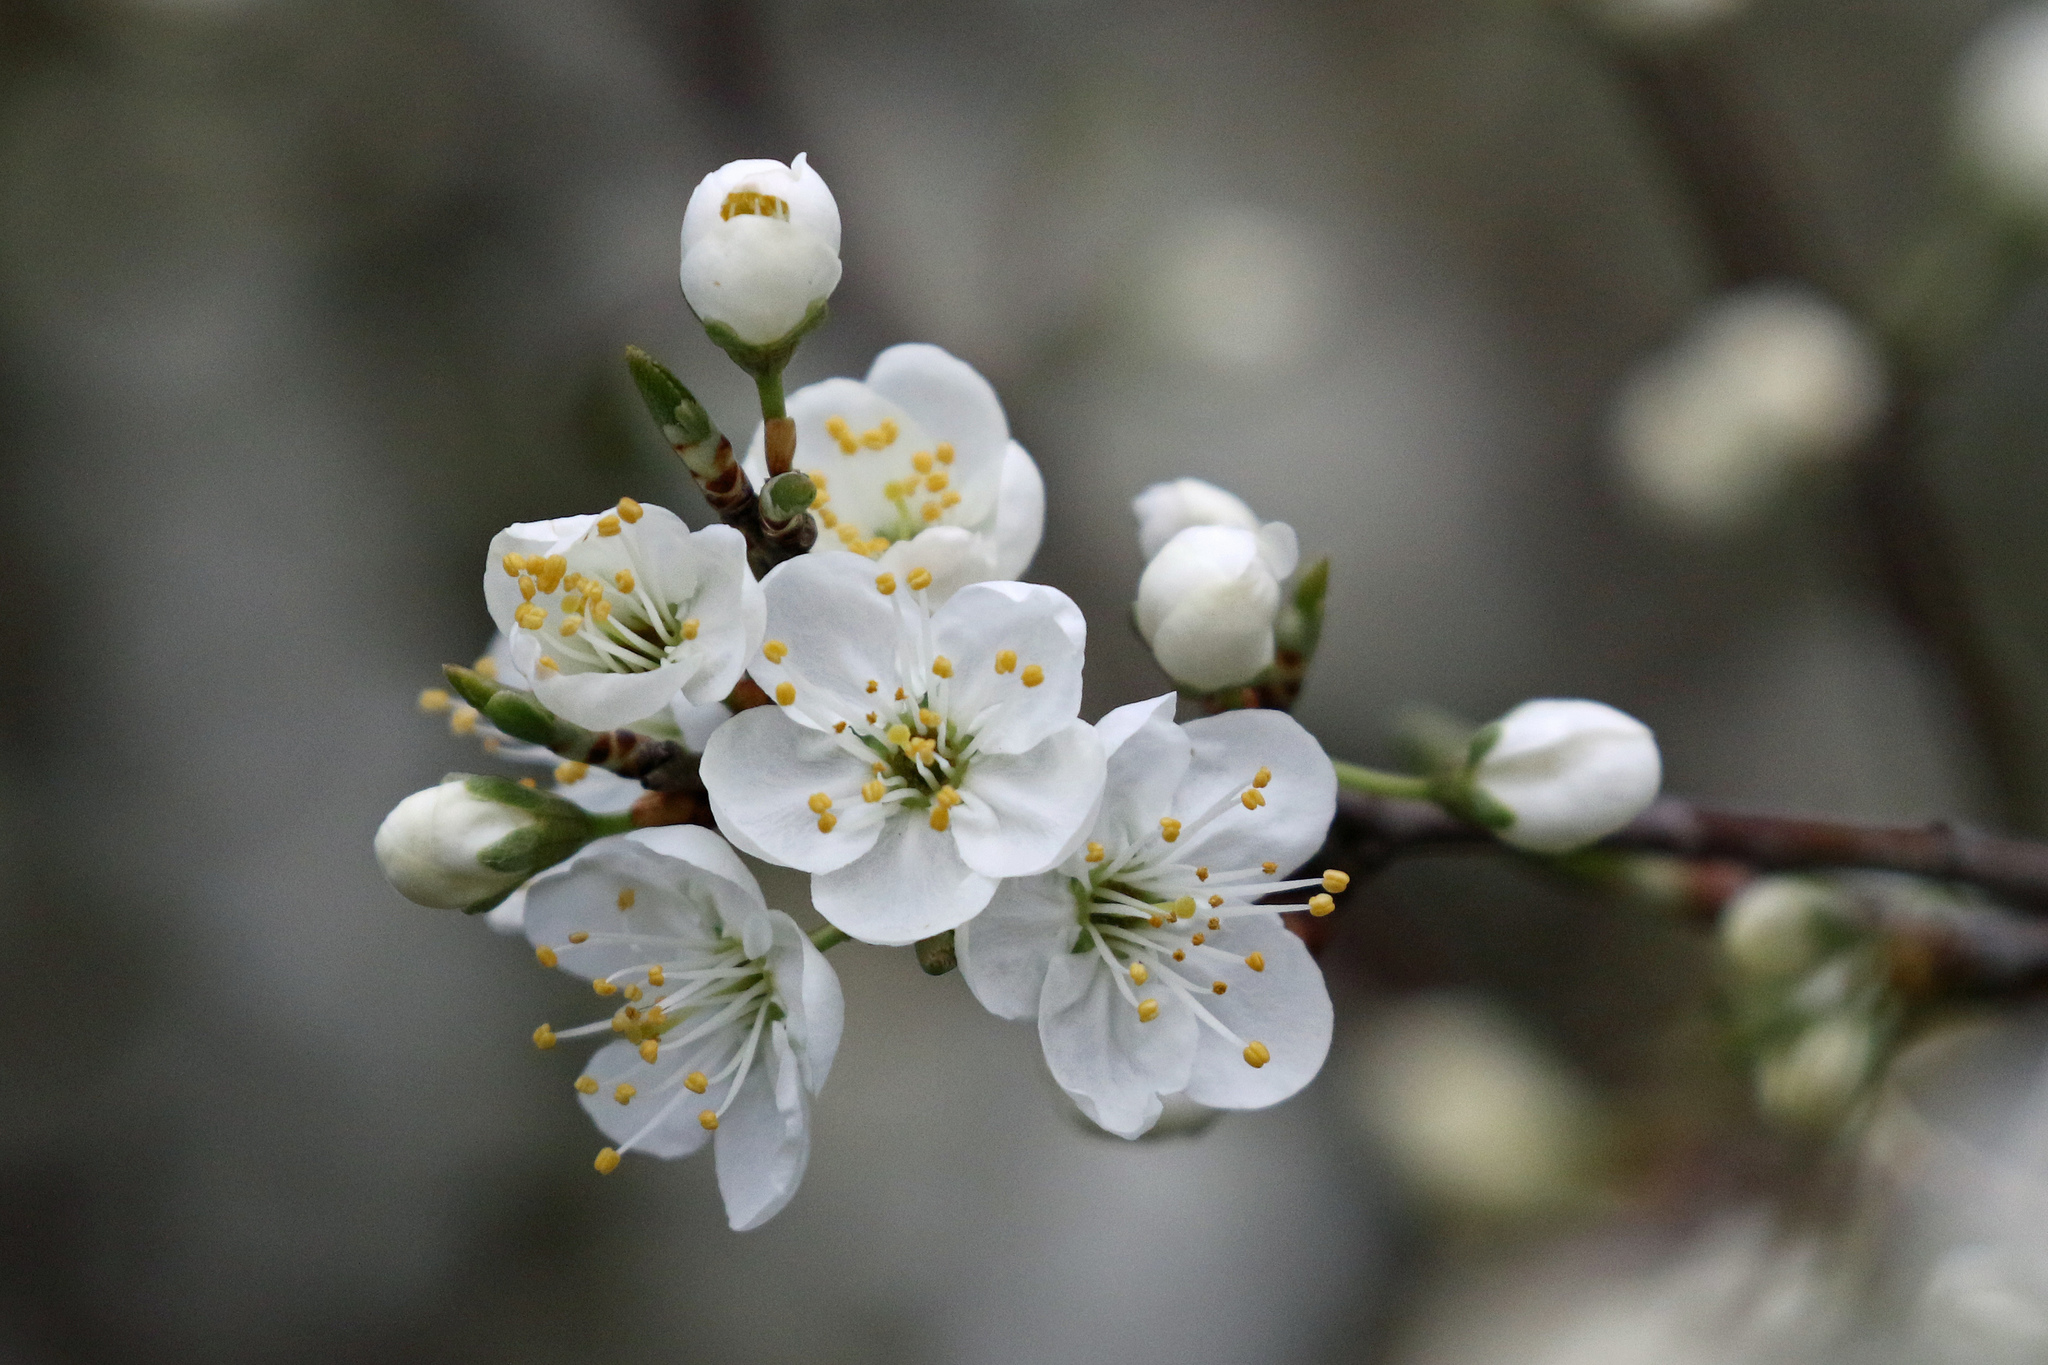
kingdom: Plantae
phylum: Tracheophyta
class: Magnoliopsida
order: Rosales
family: Rosaceae
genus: Prunus
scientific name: Prunus spinosa
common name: Blackthorn
